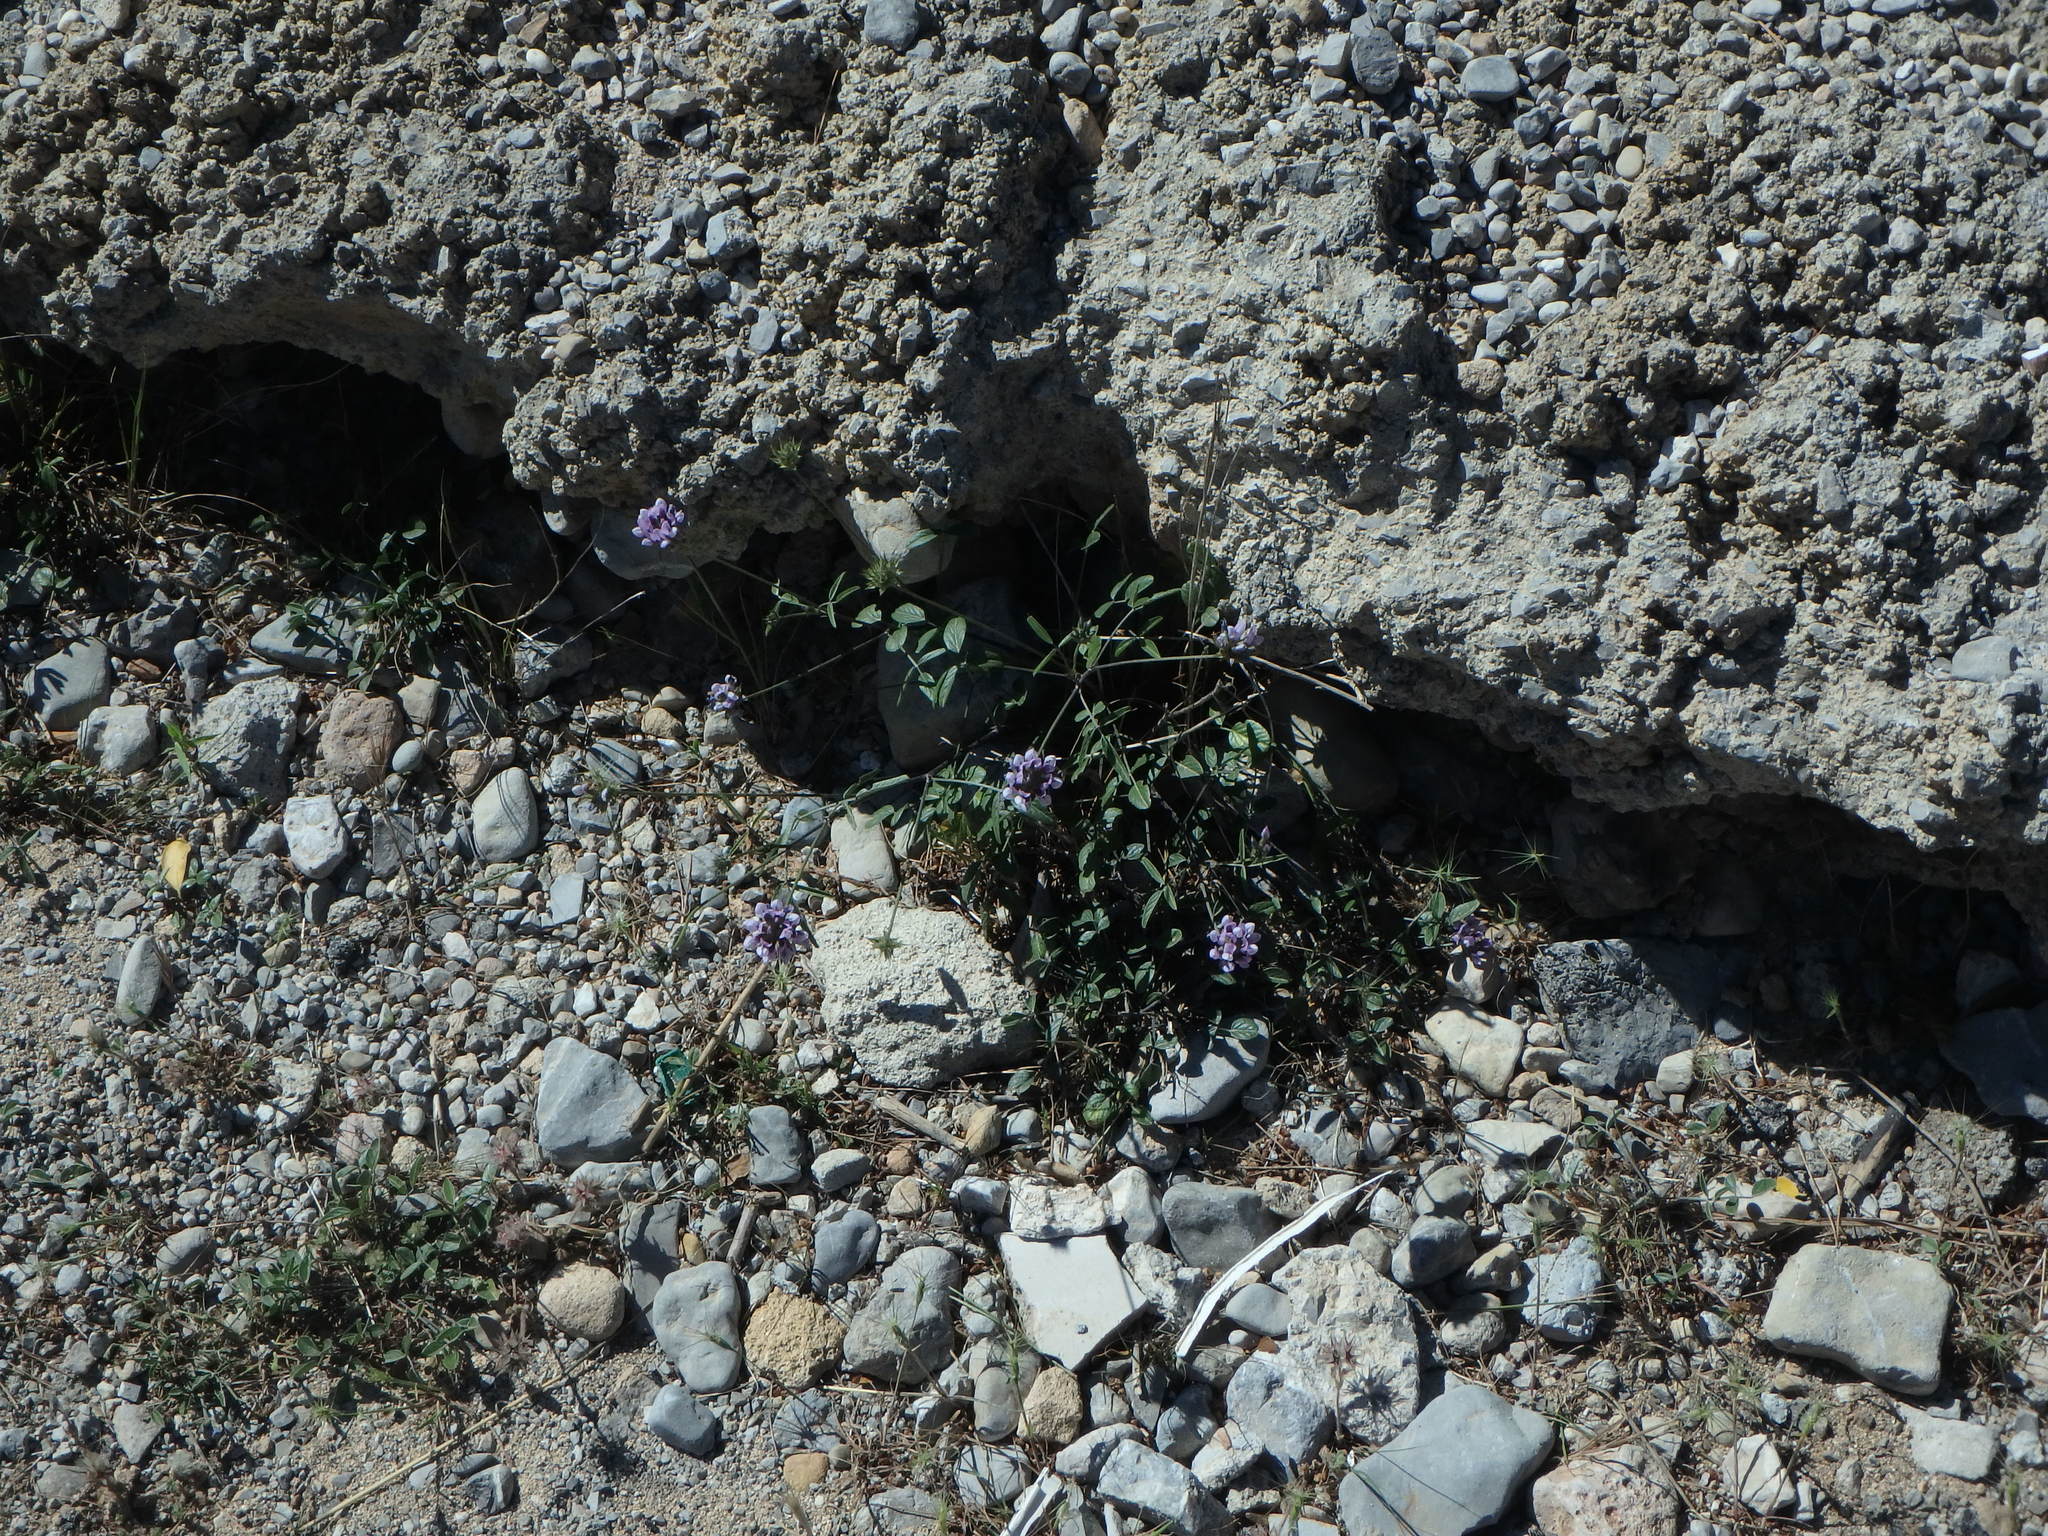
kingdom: Plantae
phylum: Tracheophyta
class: Magnoliopsida
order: Fabales
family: Fabaceae
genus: Bituminaria
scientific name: Bituminaria bituminosa
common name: Arabian pea
